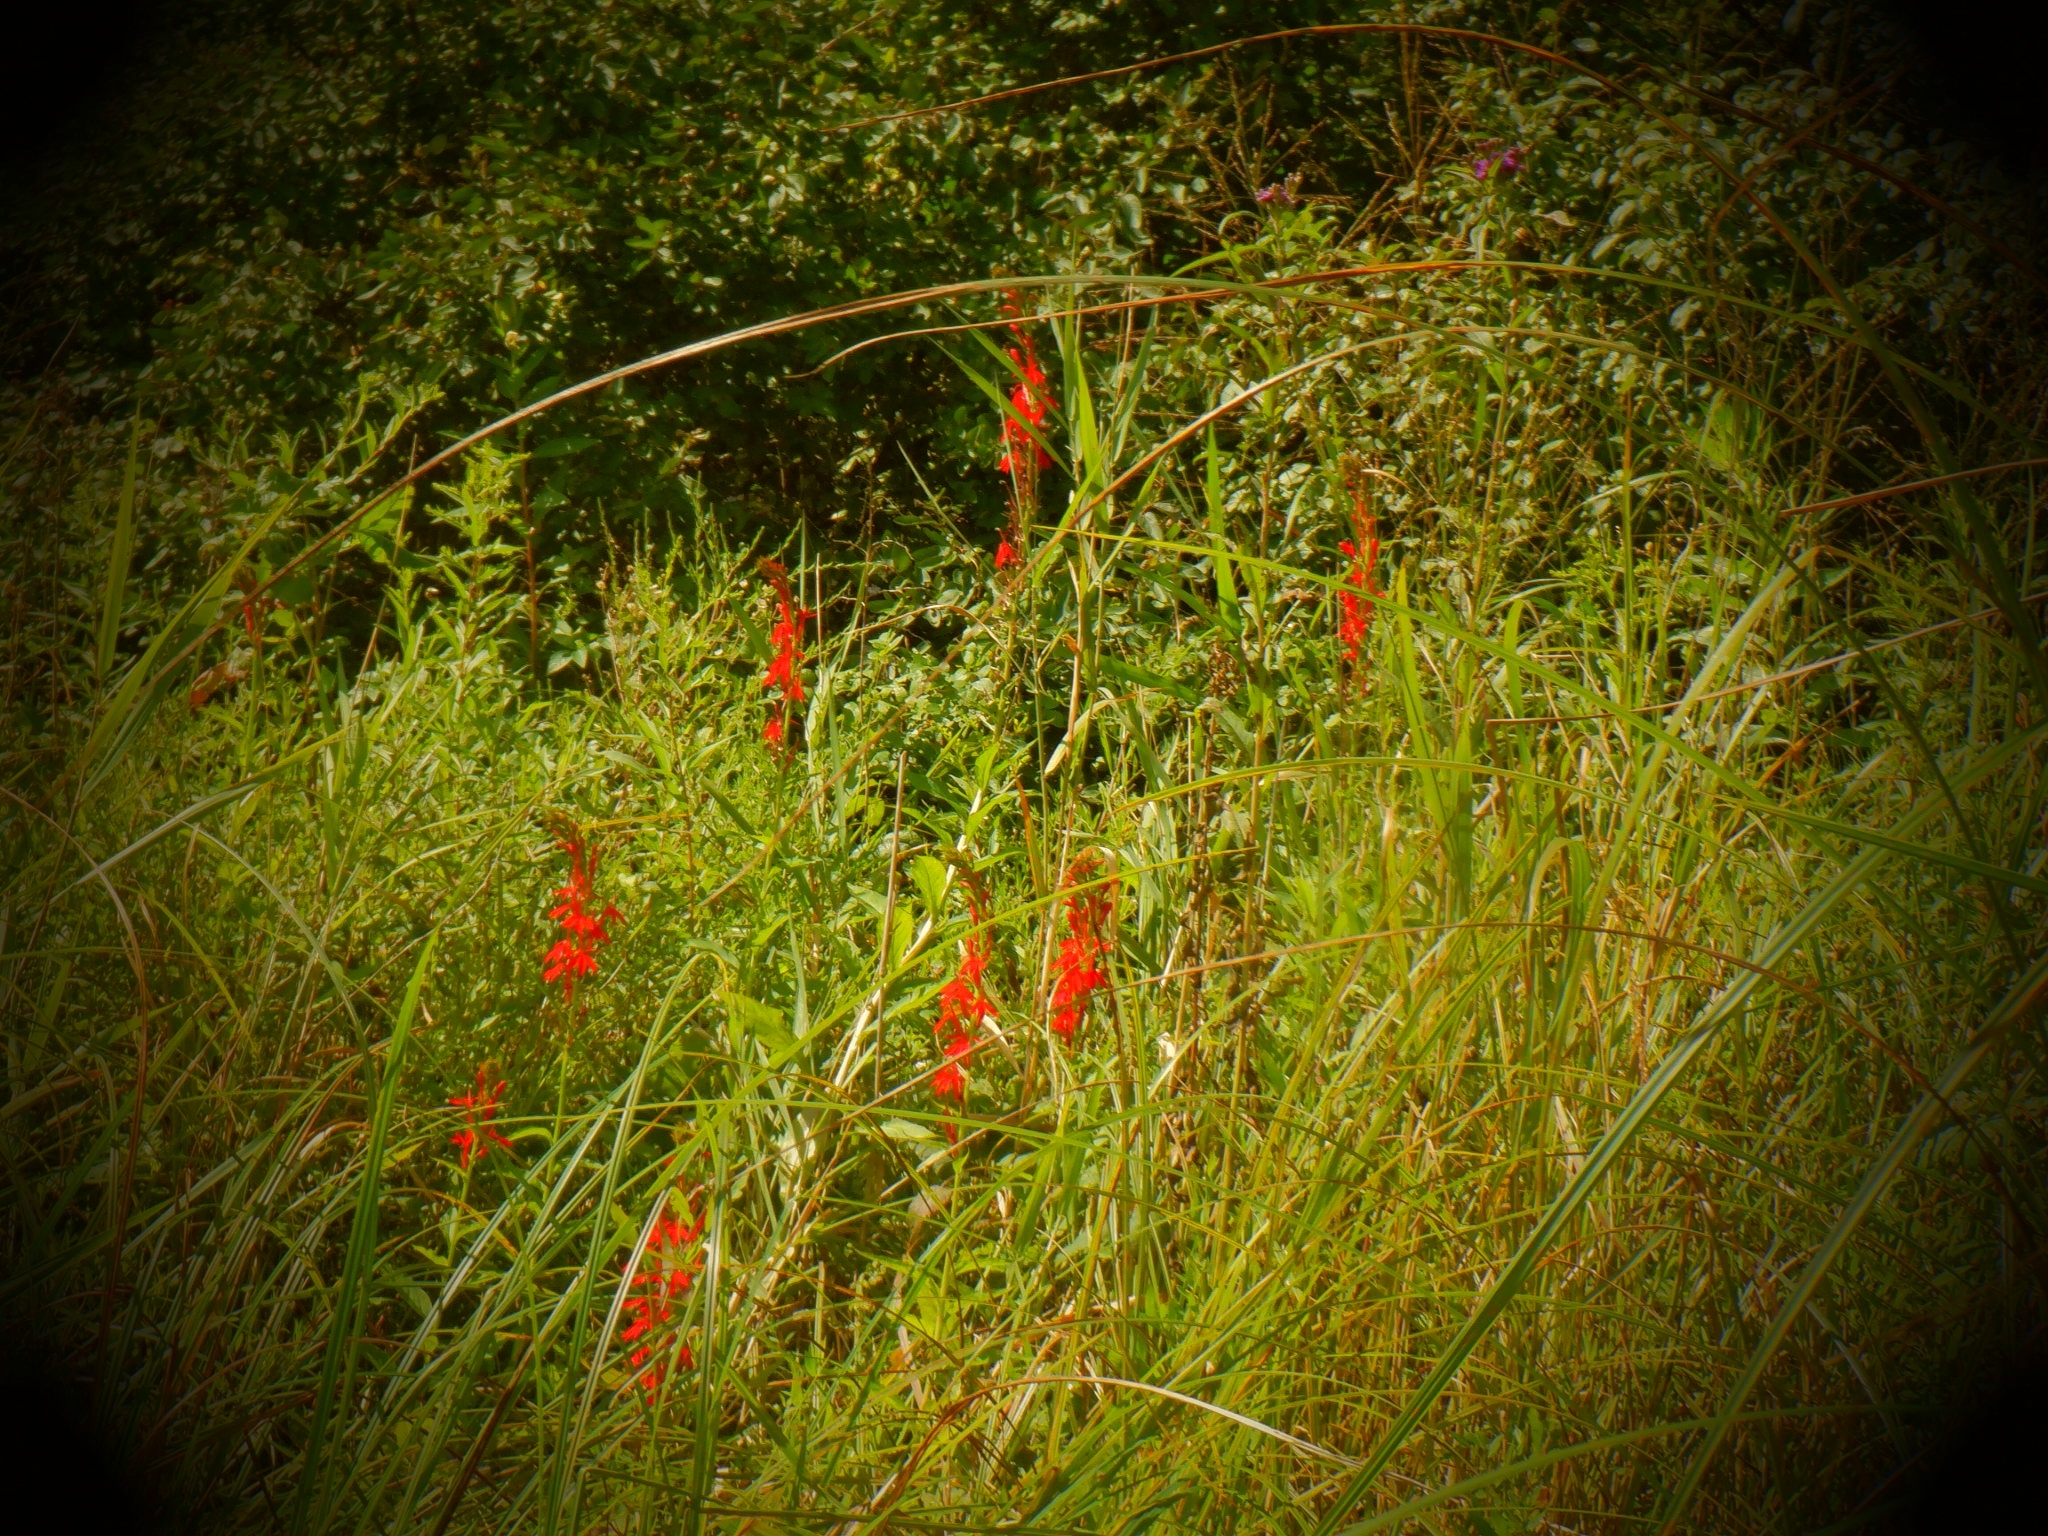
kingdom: Plantae
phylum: Tracheophyta
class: Magnoliopsida
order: Asterales
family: Campanulaceae
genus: Lobelia
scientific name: Lobelia cardinalis
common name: Cardinal flower
